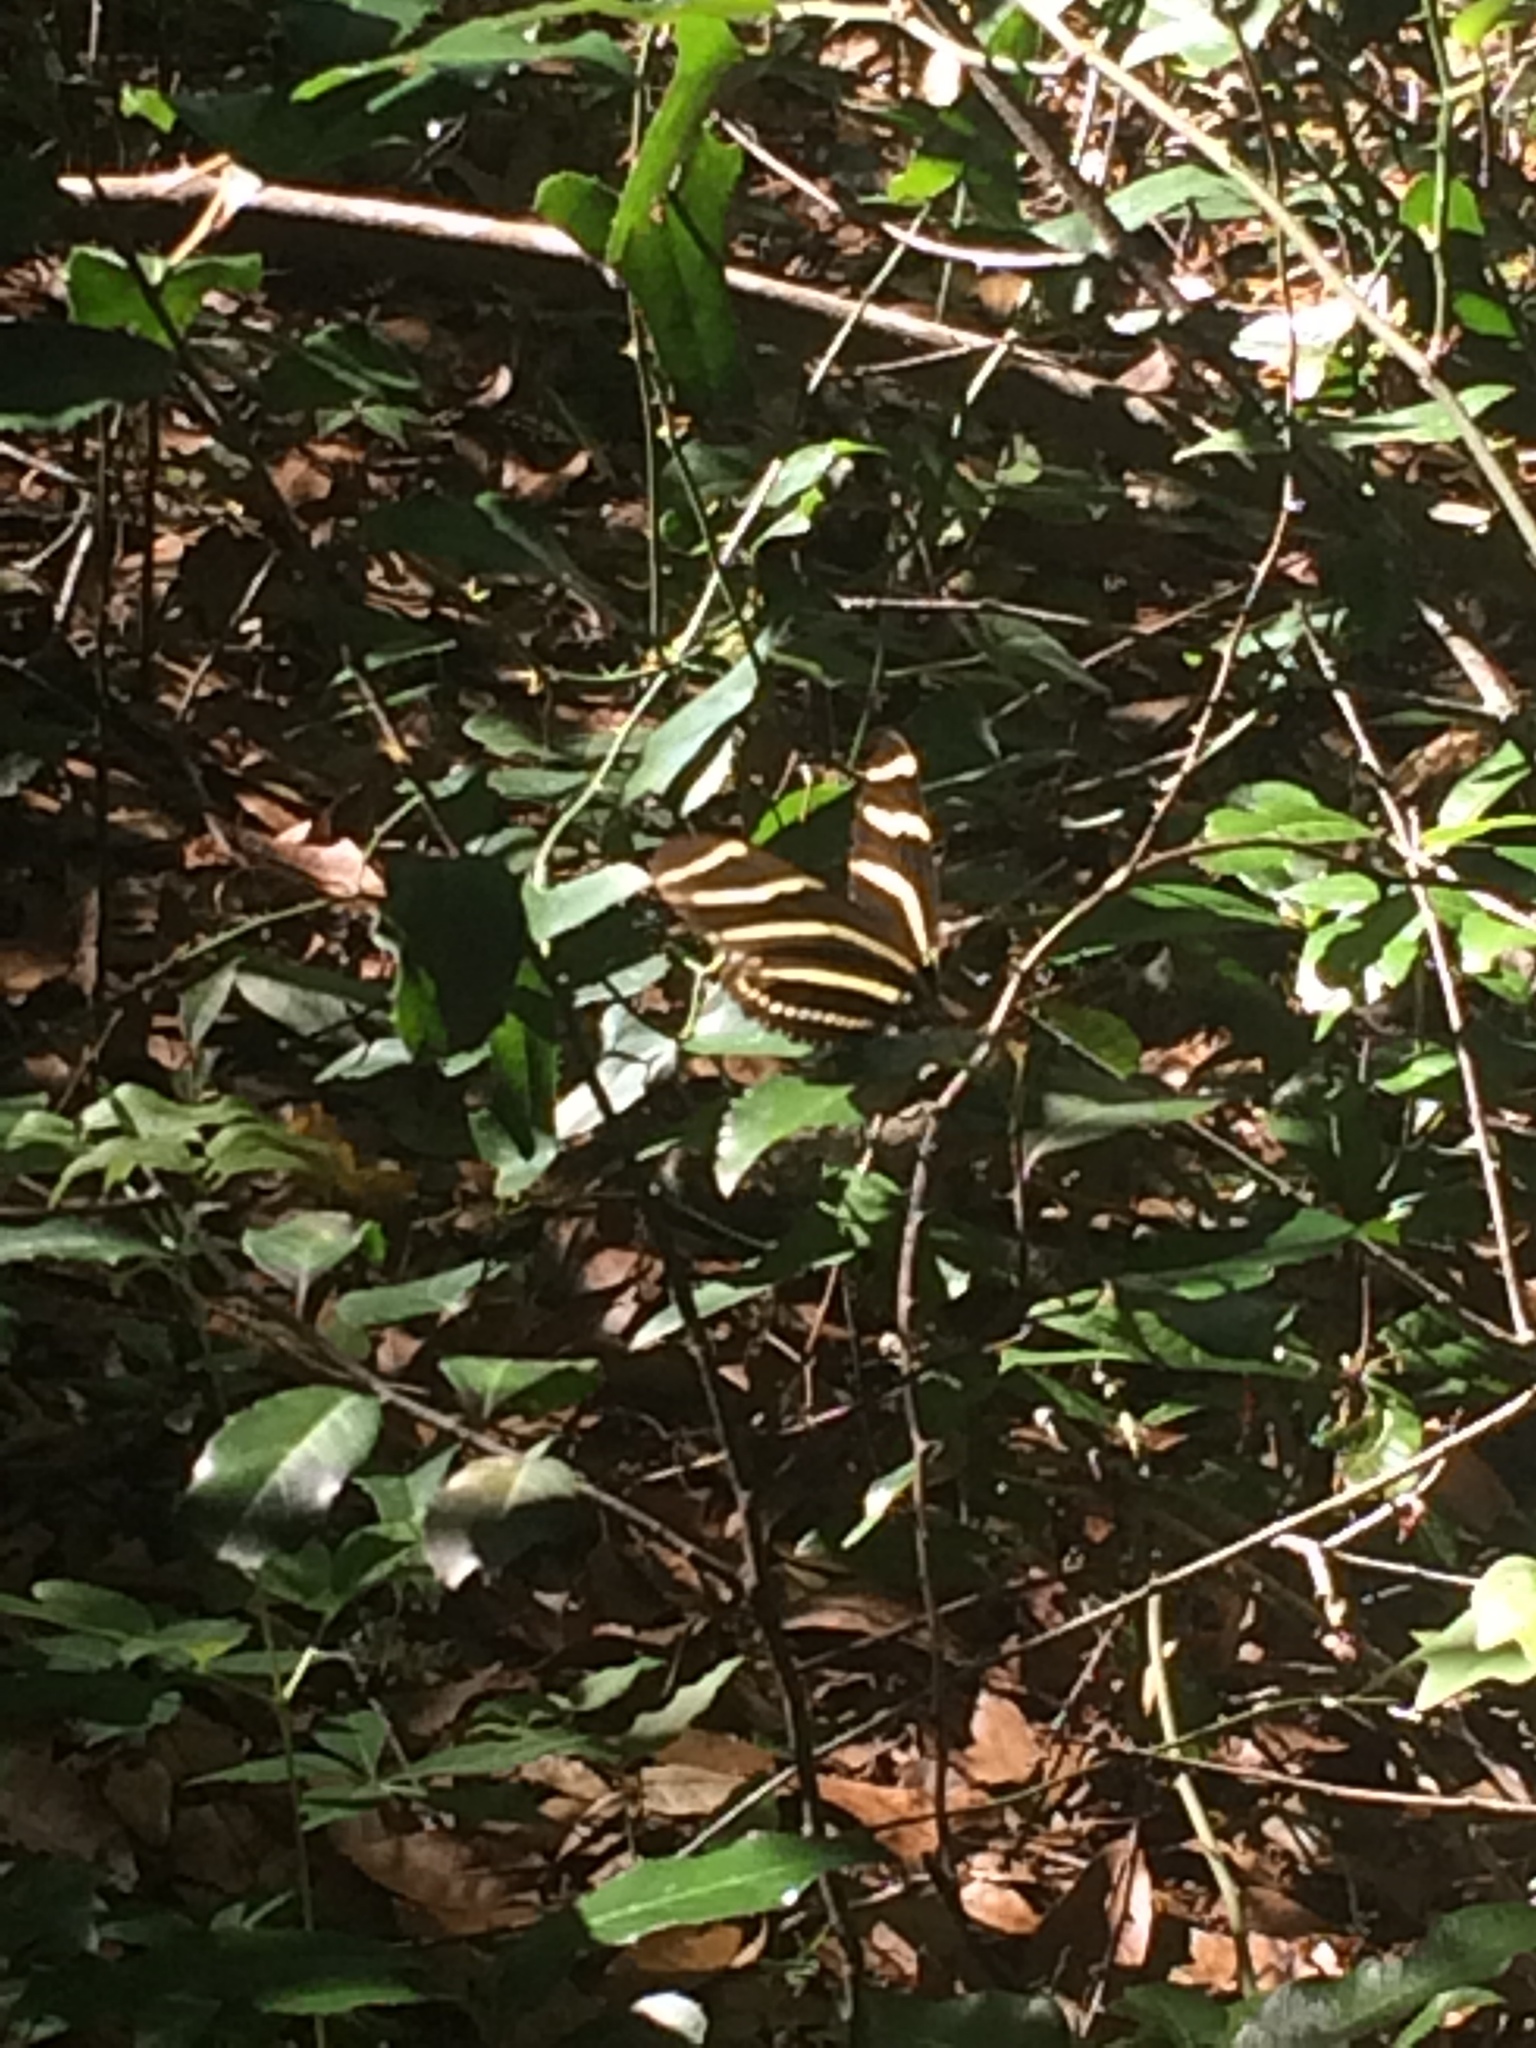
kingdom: Animalia
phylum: Arthropoda
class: Insecta
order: Lepidoptera
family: Nymphalidae
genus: Heliconius
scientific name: Heliconius charithonia
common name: Zebra long wing
